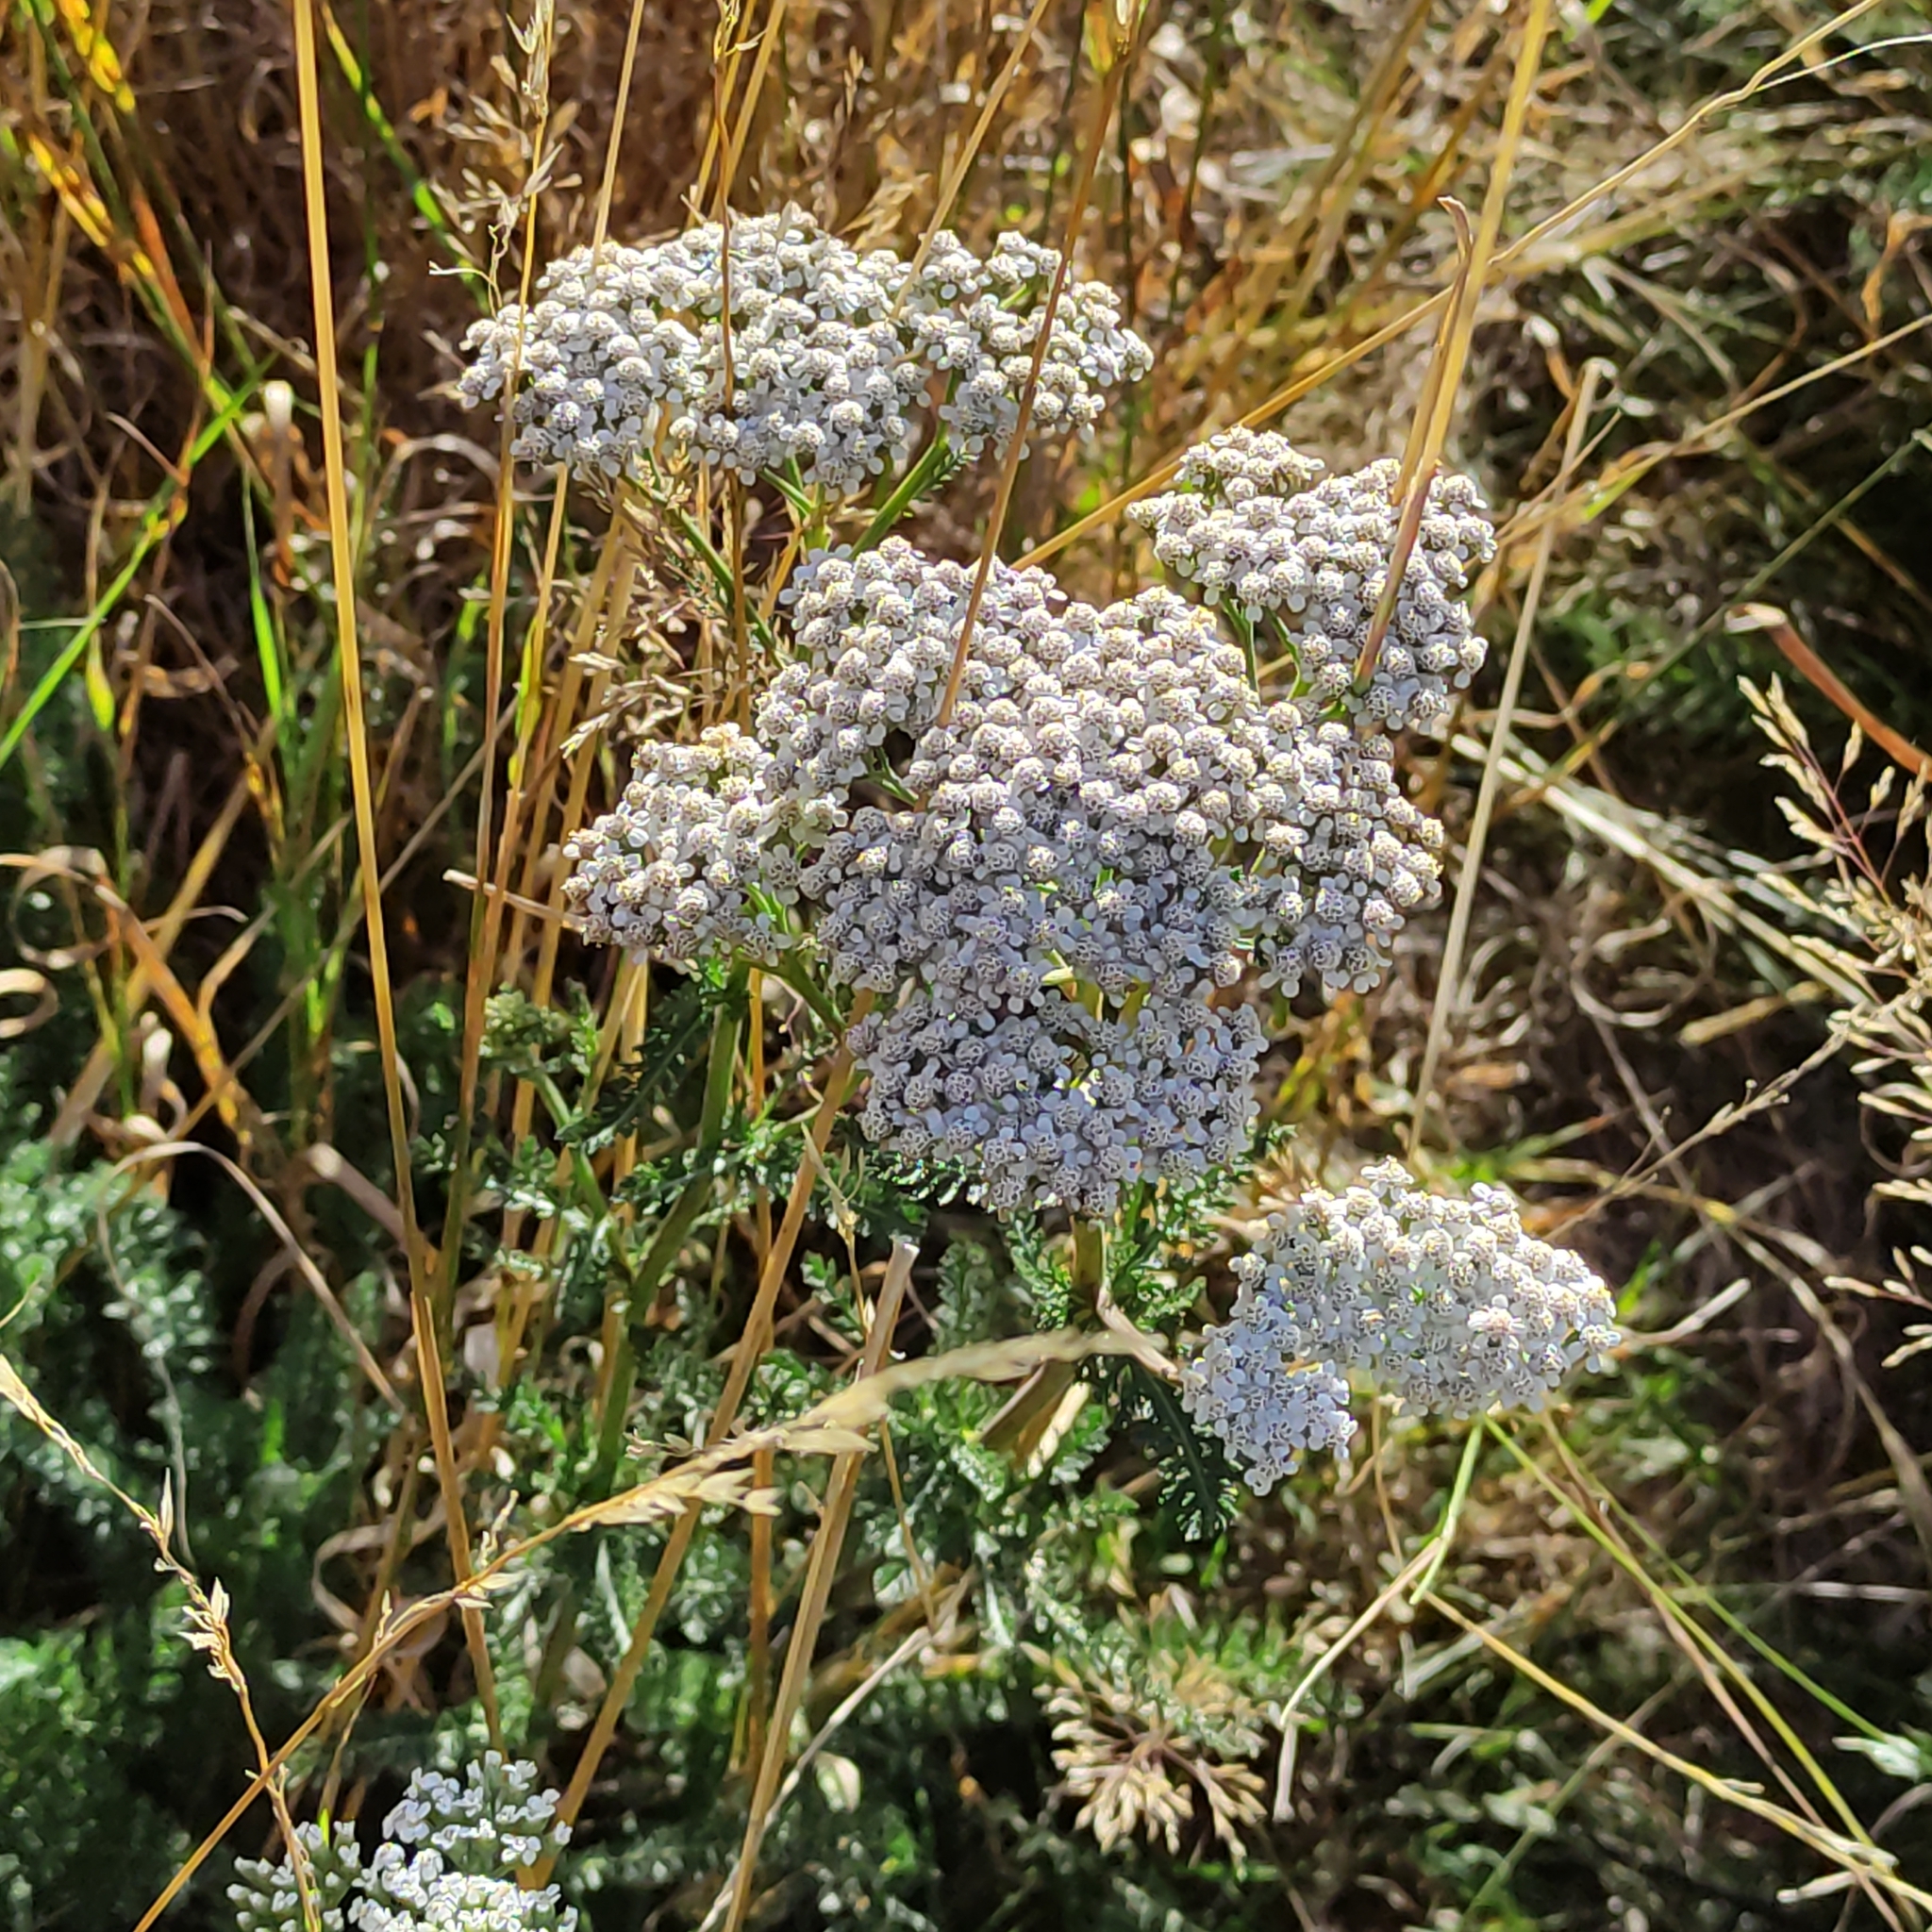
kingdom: Plantae
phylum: Tracheophyta
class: Magnoliopsida
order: Asterales
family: Asteraceae
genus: Achillea
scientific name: Achillea millefolium
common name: Yarrow
